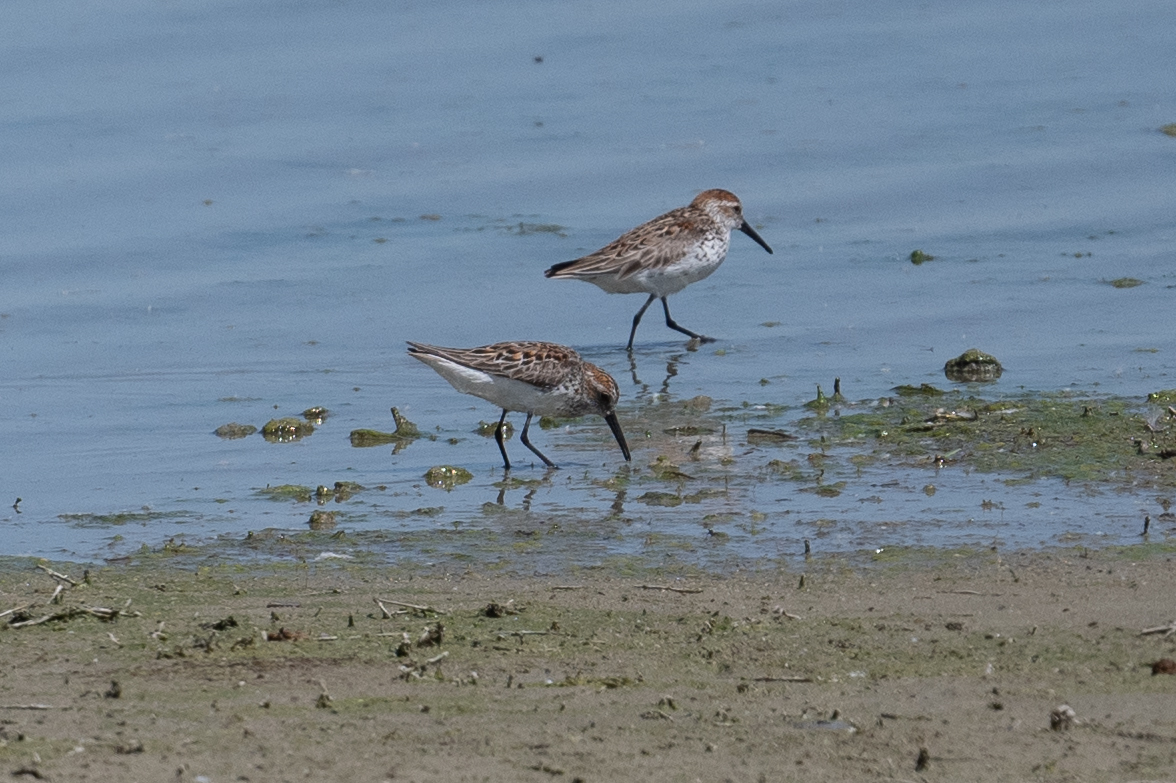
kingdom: Animalia
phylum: Chordata
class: Aves
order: Charadriiformes
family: Scolopacidae
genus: Calidris
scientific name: Calidris mauri
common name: Western sandpiper
